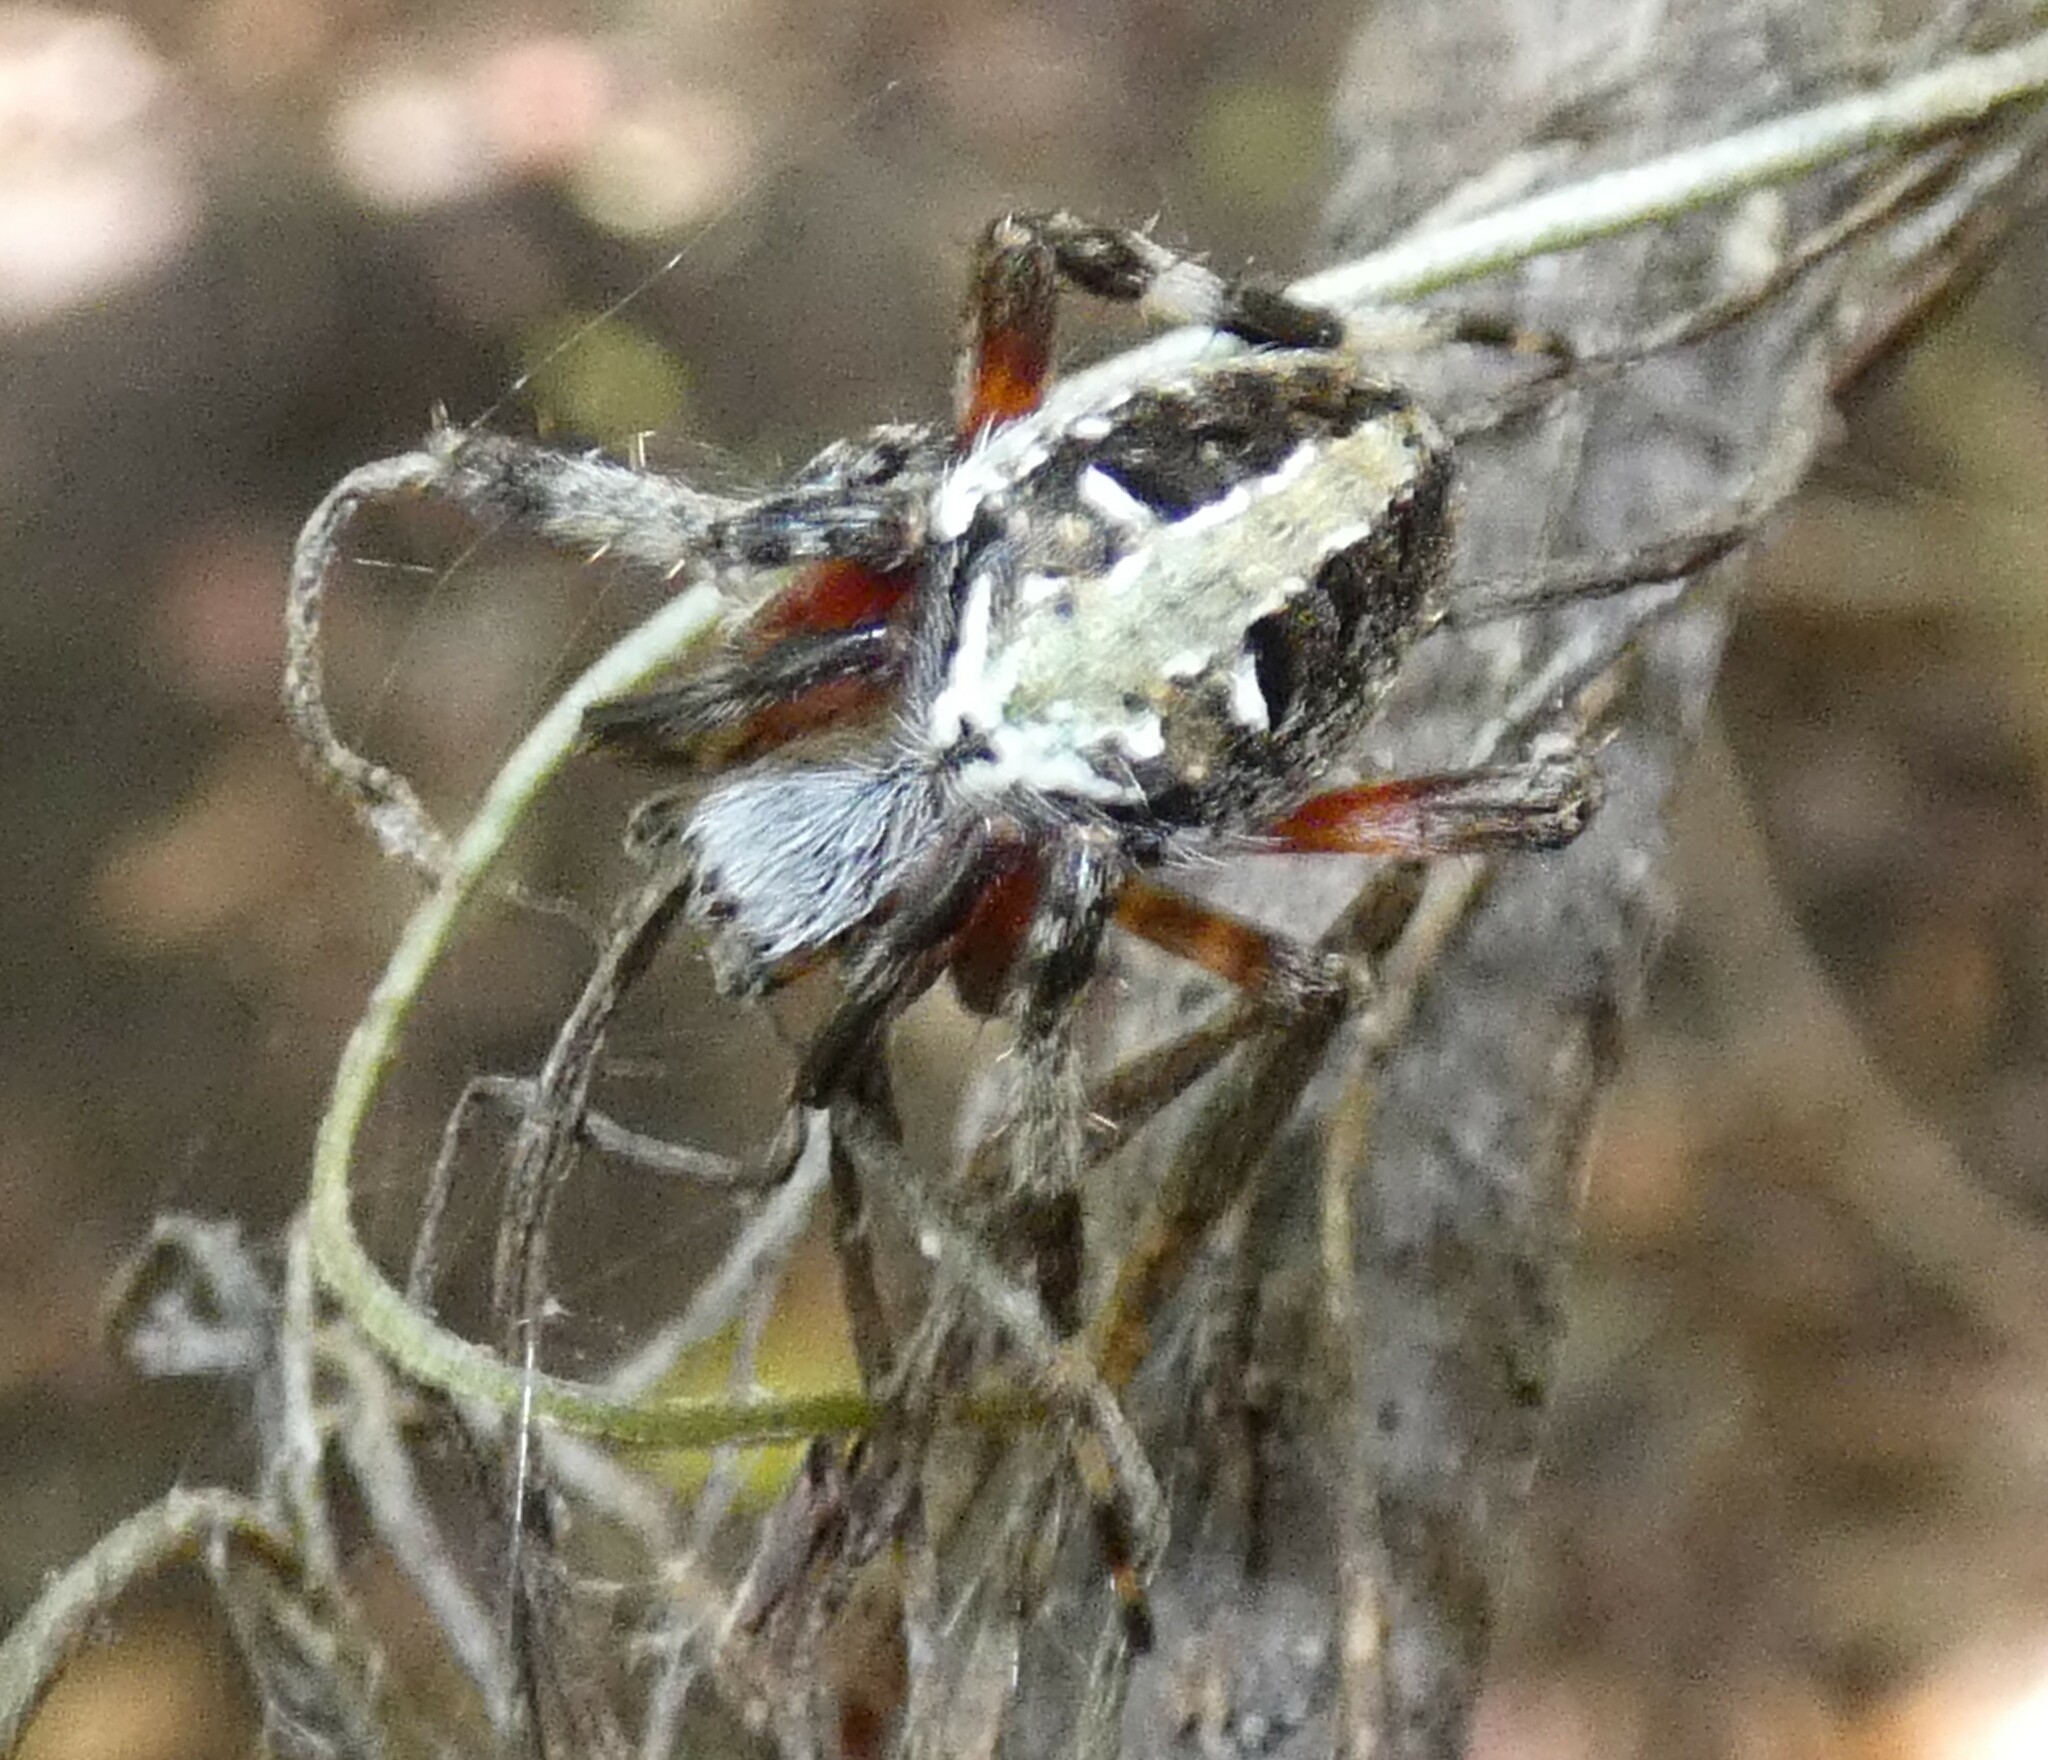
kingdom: Animalia
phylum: Arthropoda
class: Arachnida
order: Araneae
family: Araneidae
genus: Neoscona
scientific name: Neoscona domiciliorum
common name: Red-femured spotted orbweaver
